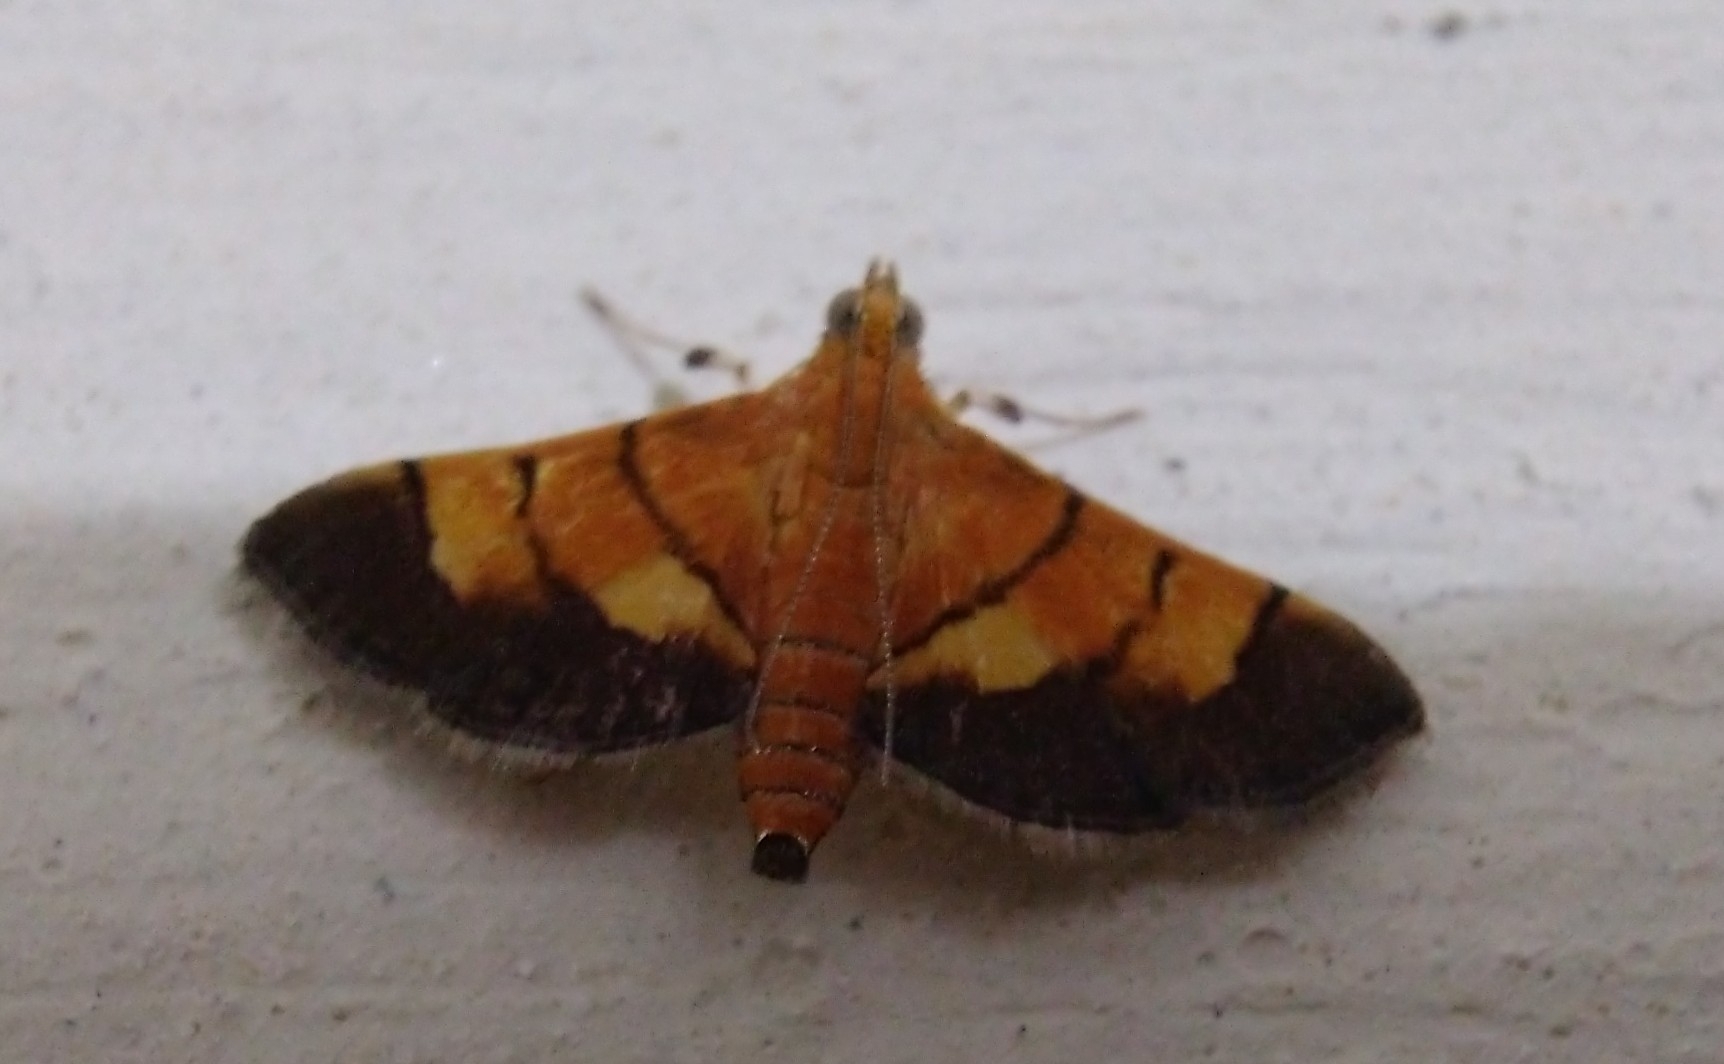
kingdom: Animalia
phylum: Arthropoda
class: Insecta
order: Lepidoptera
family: Crambidae
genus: Syngamia
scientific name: Syngamia latimarginalis
